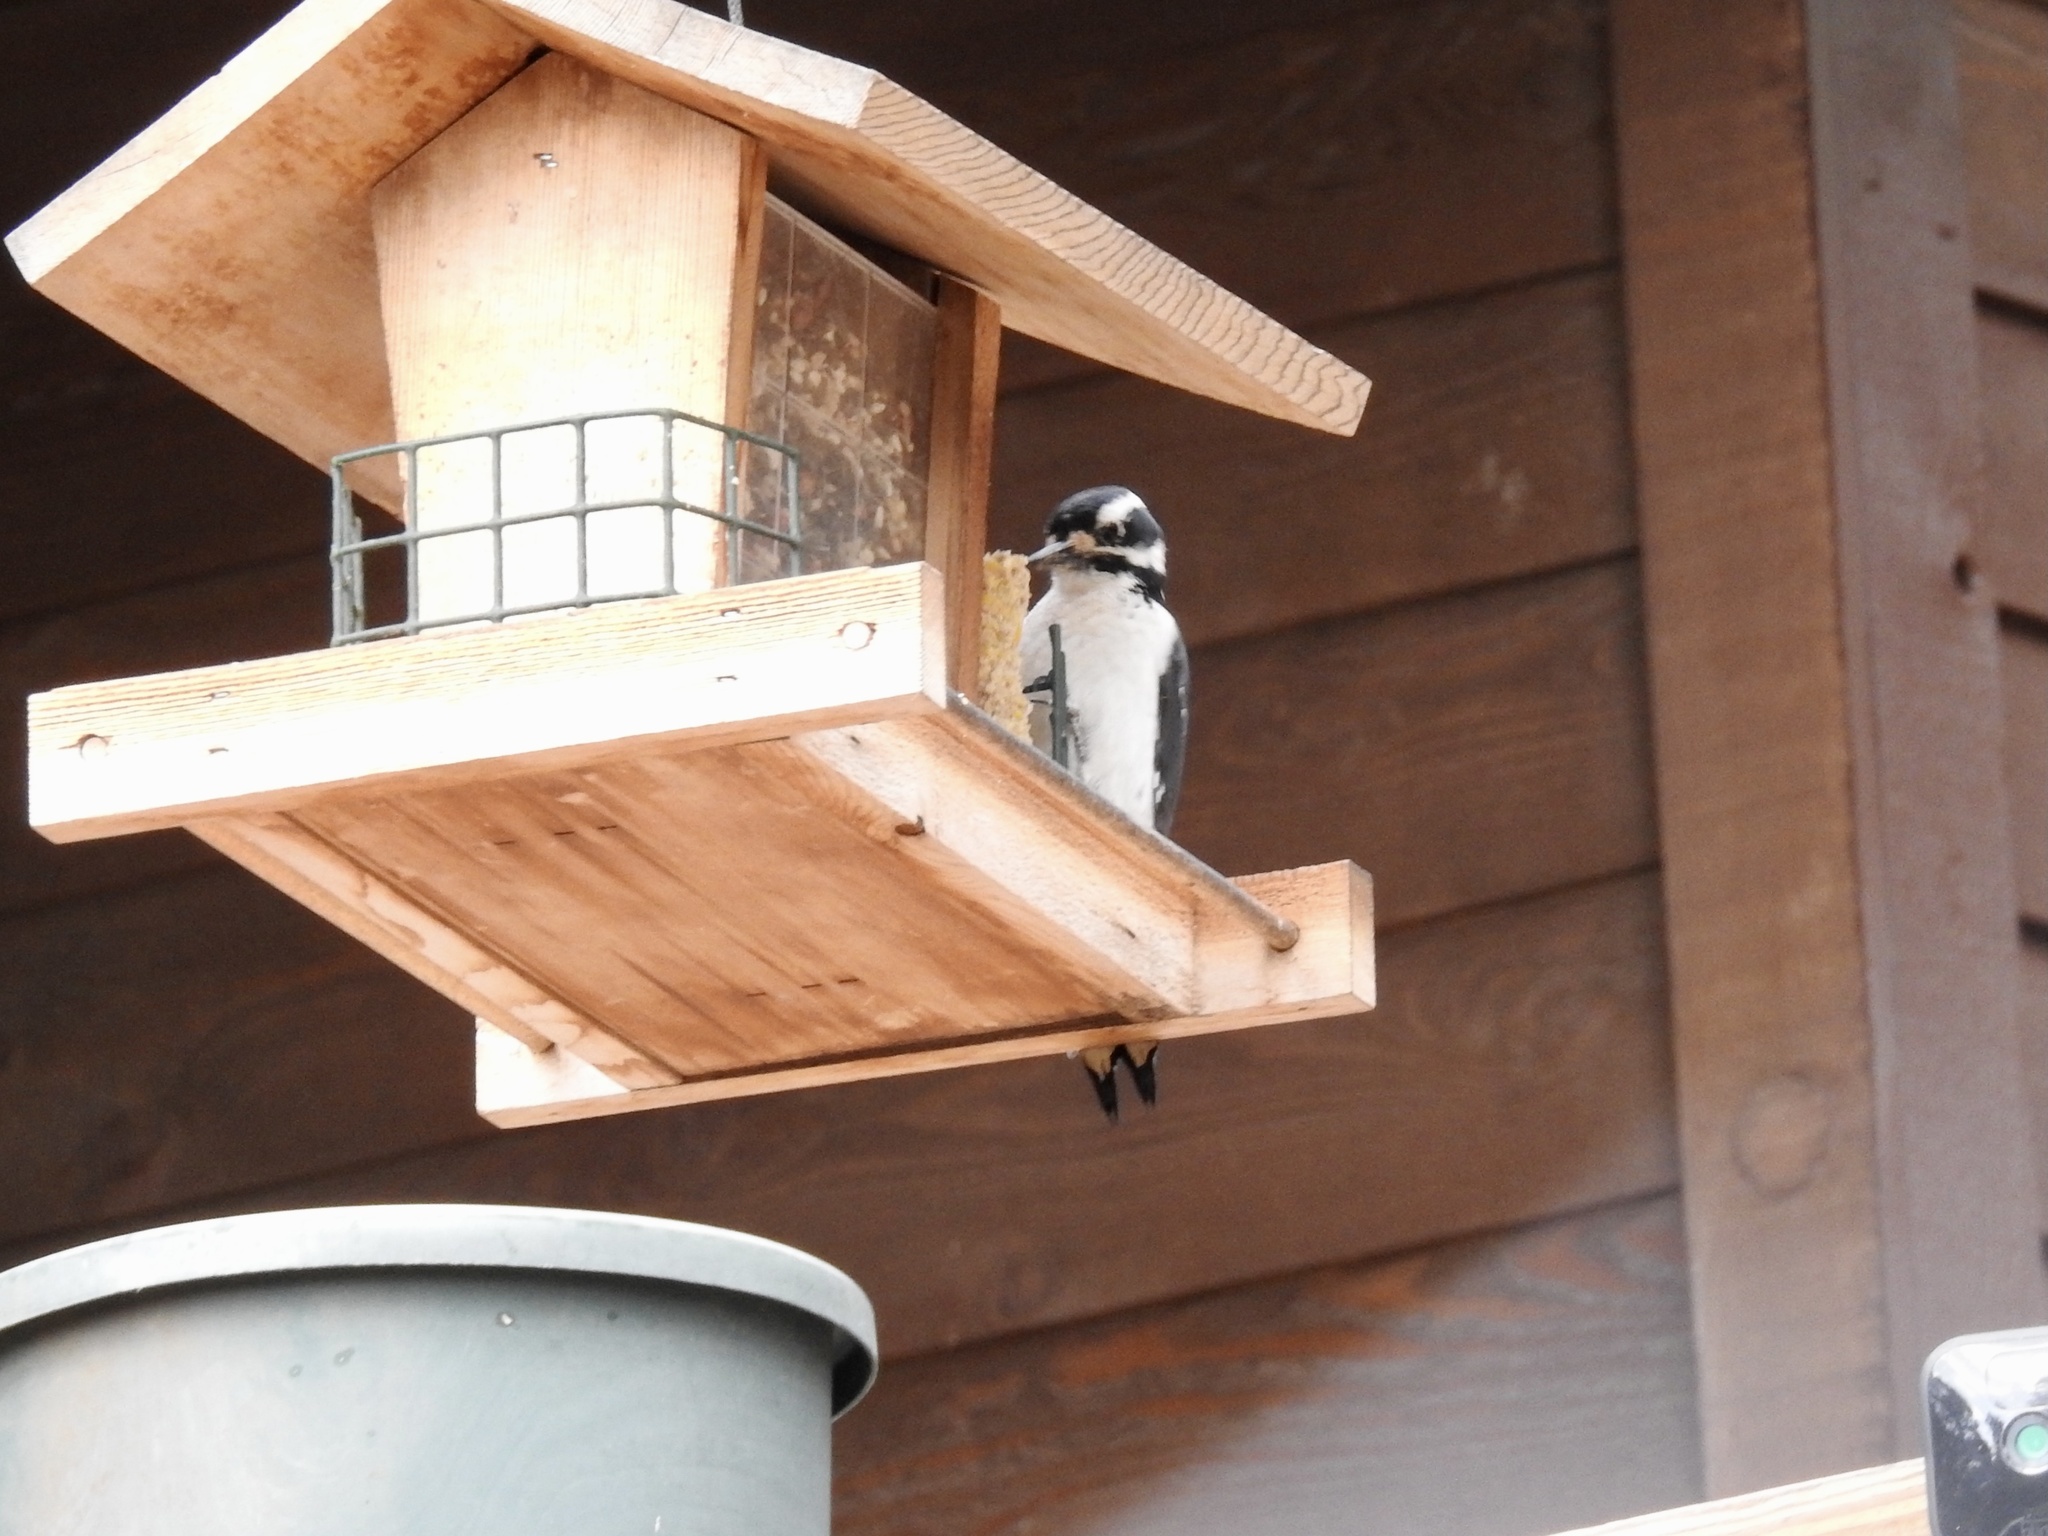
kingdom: Animalia
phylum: Chordata
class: Aves
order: Piciformes
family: Picidae
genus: Leuconotopicus
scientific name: Leuconotopicus villosus
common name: Hairy woodpecker
